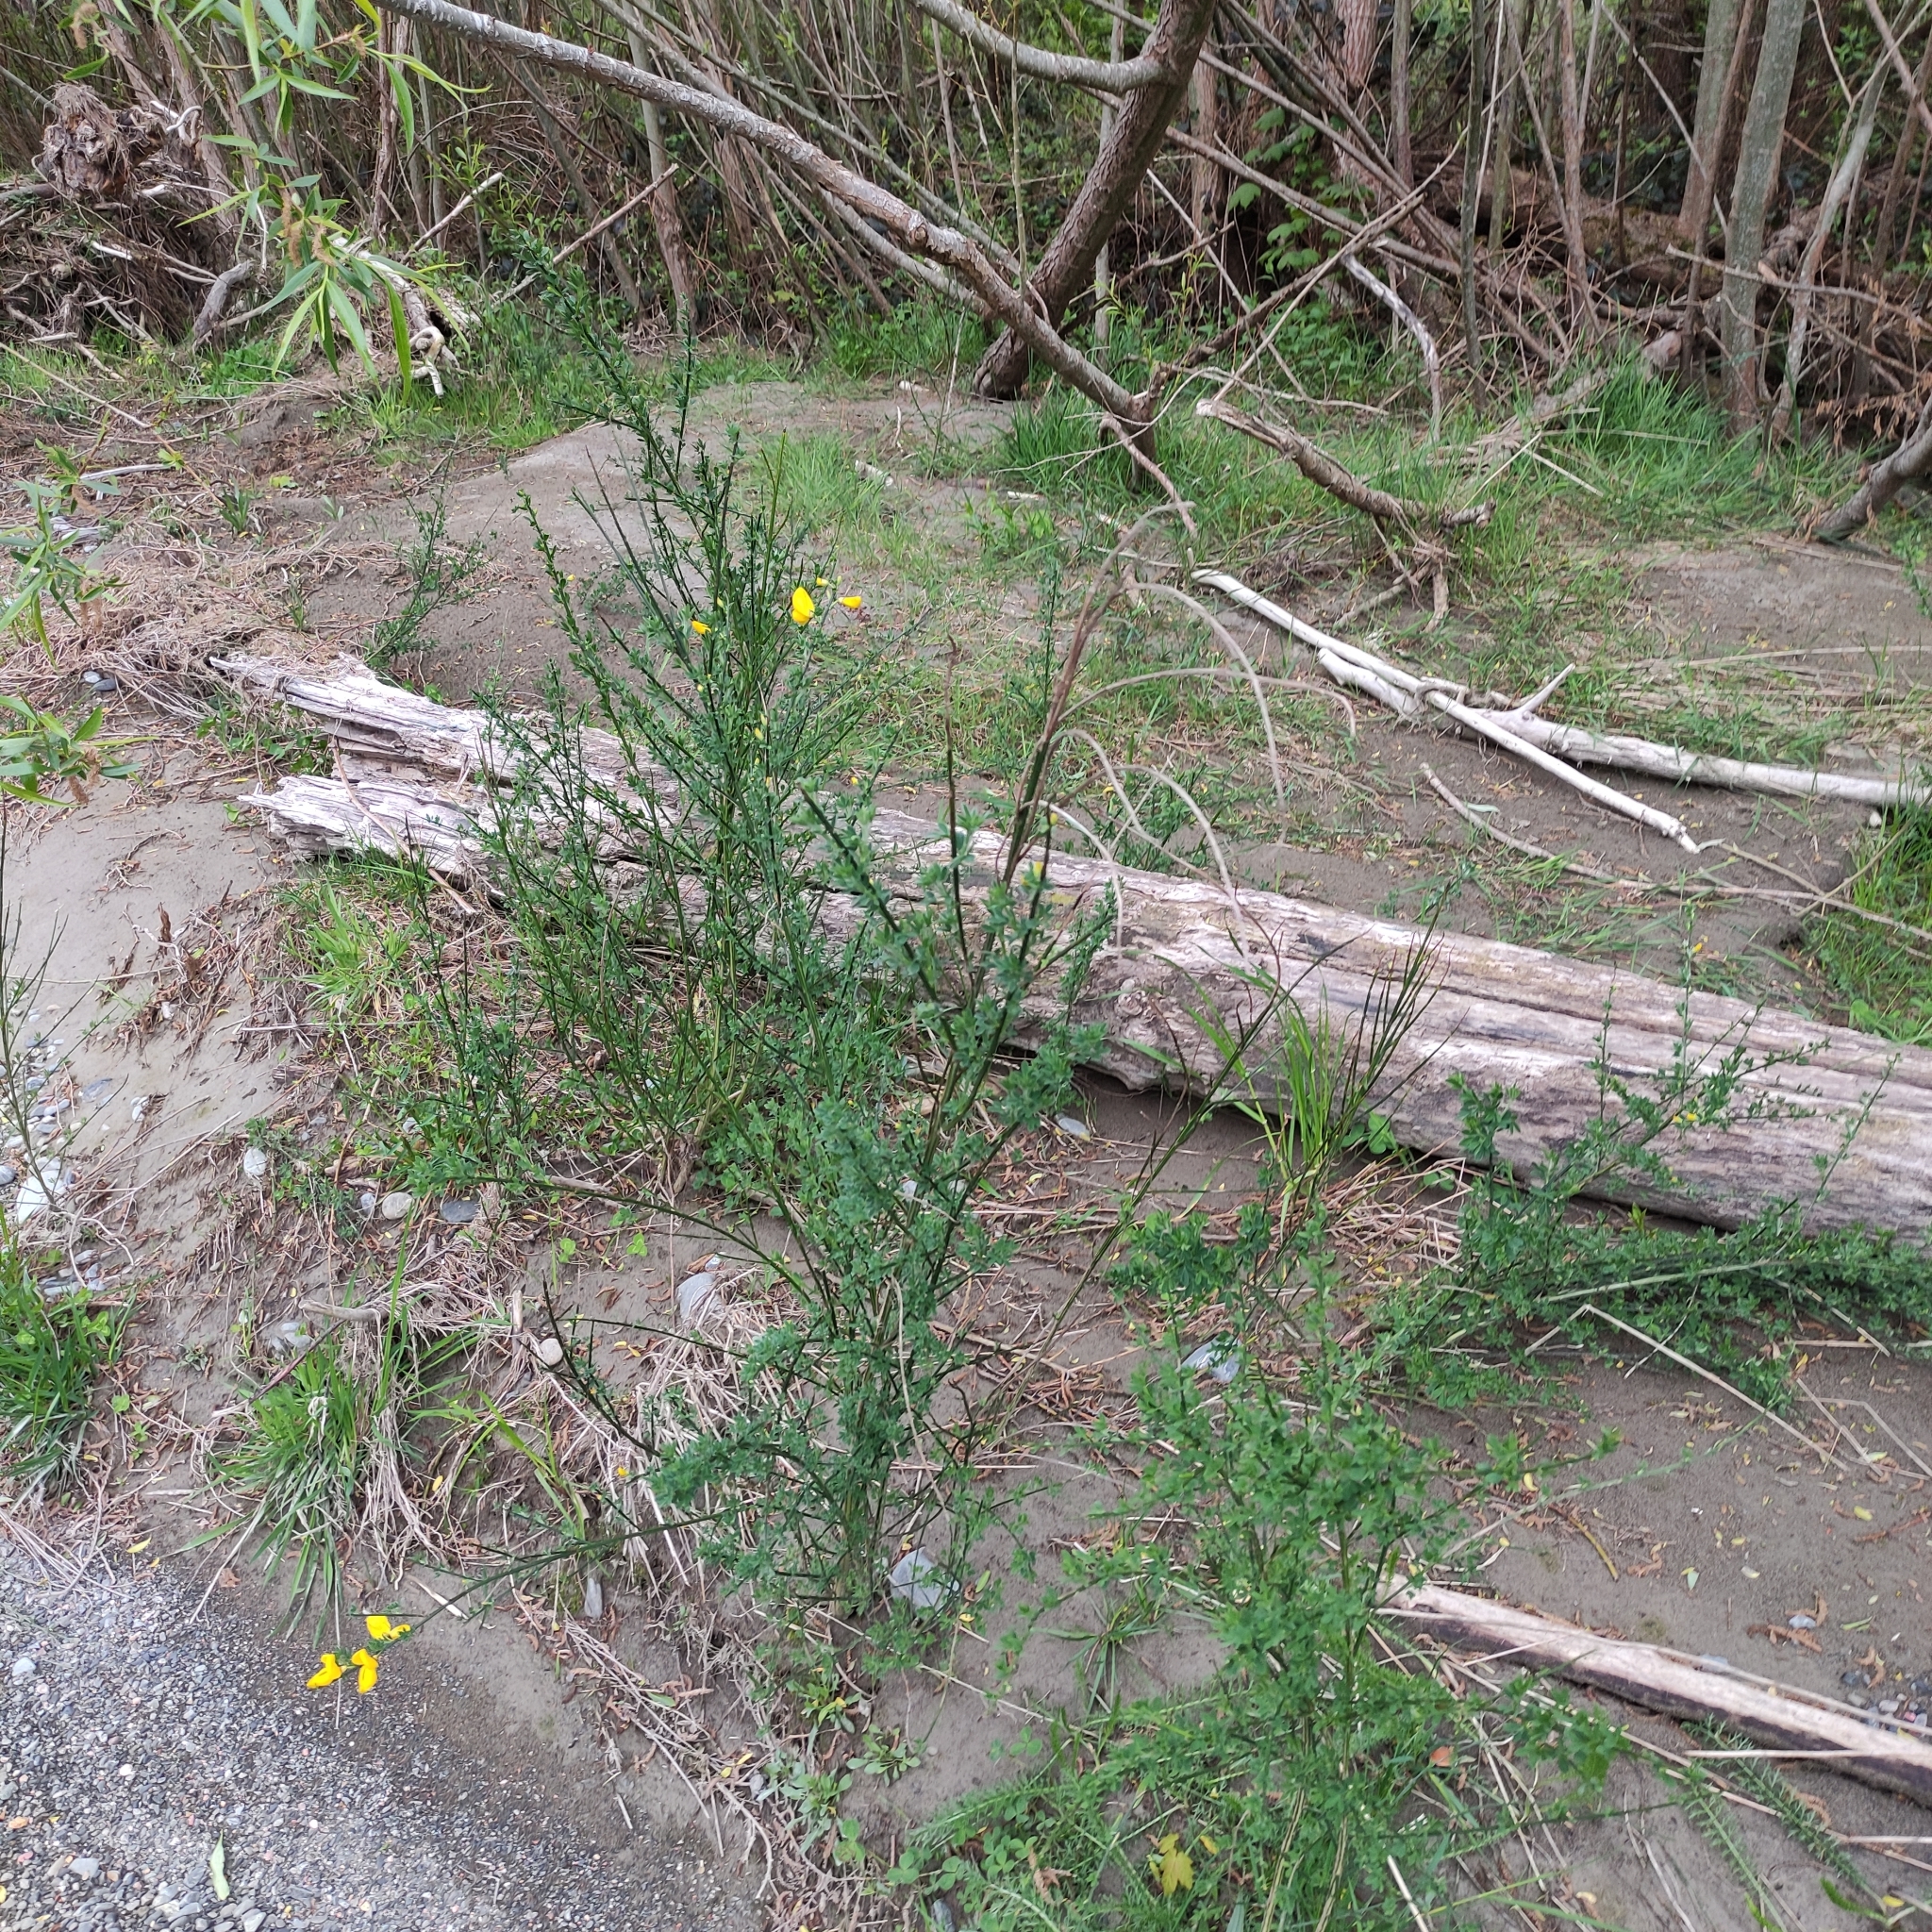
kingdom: Plantae
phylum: Tracheophyta
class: Magnoliopsida
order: Fabales
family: Fabaceae
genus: Cytisus
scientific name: Cytisus scoparius
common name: Scotch broom
